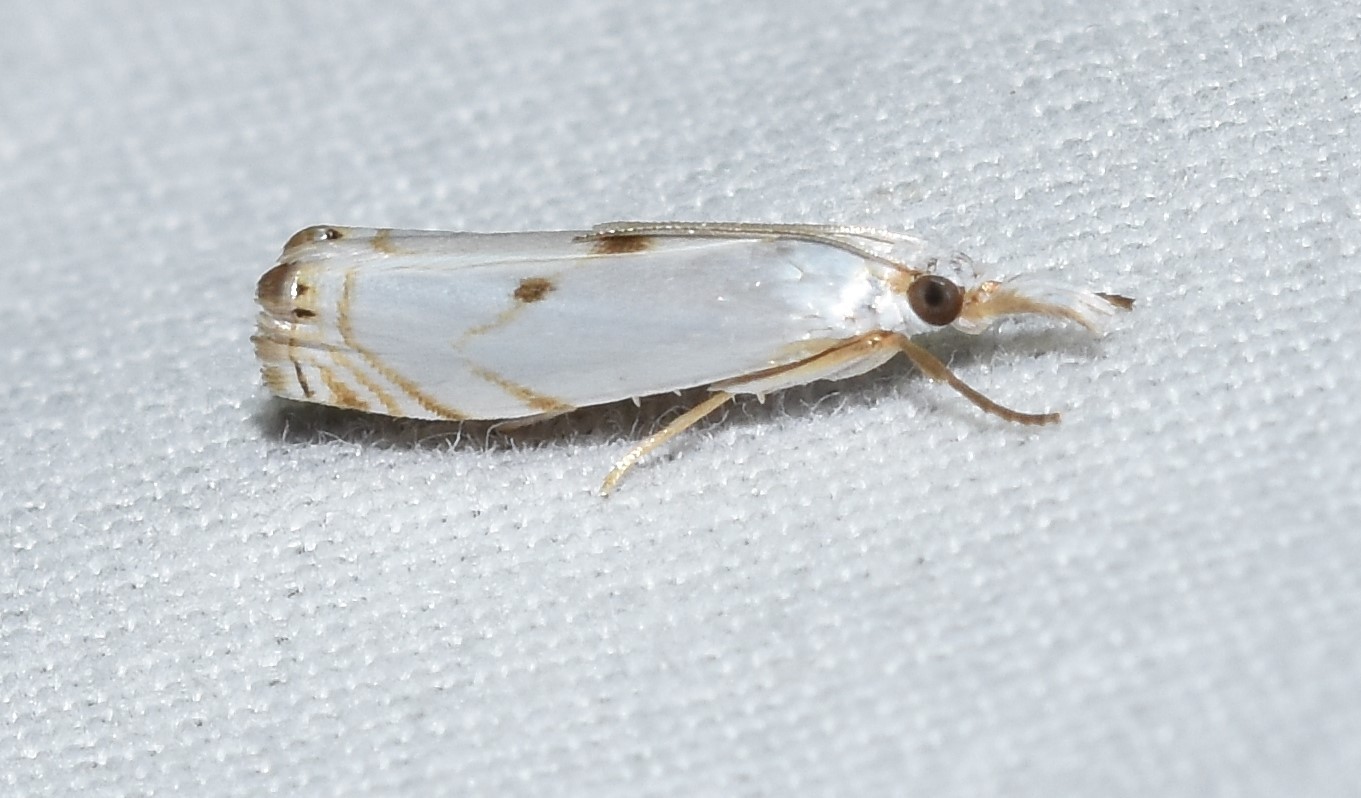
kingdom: Animalia
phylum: Arthropoda
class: Insecta
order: Lepidoptera
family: Crambidae
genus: Microcrambus
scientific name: Microcrambus biguttellus
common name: Gold-stripe grass-veneer moth
